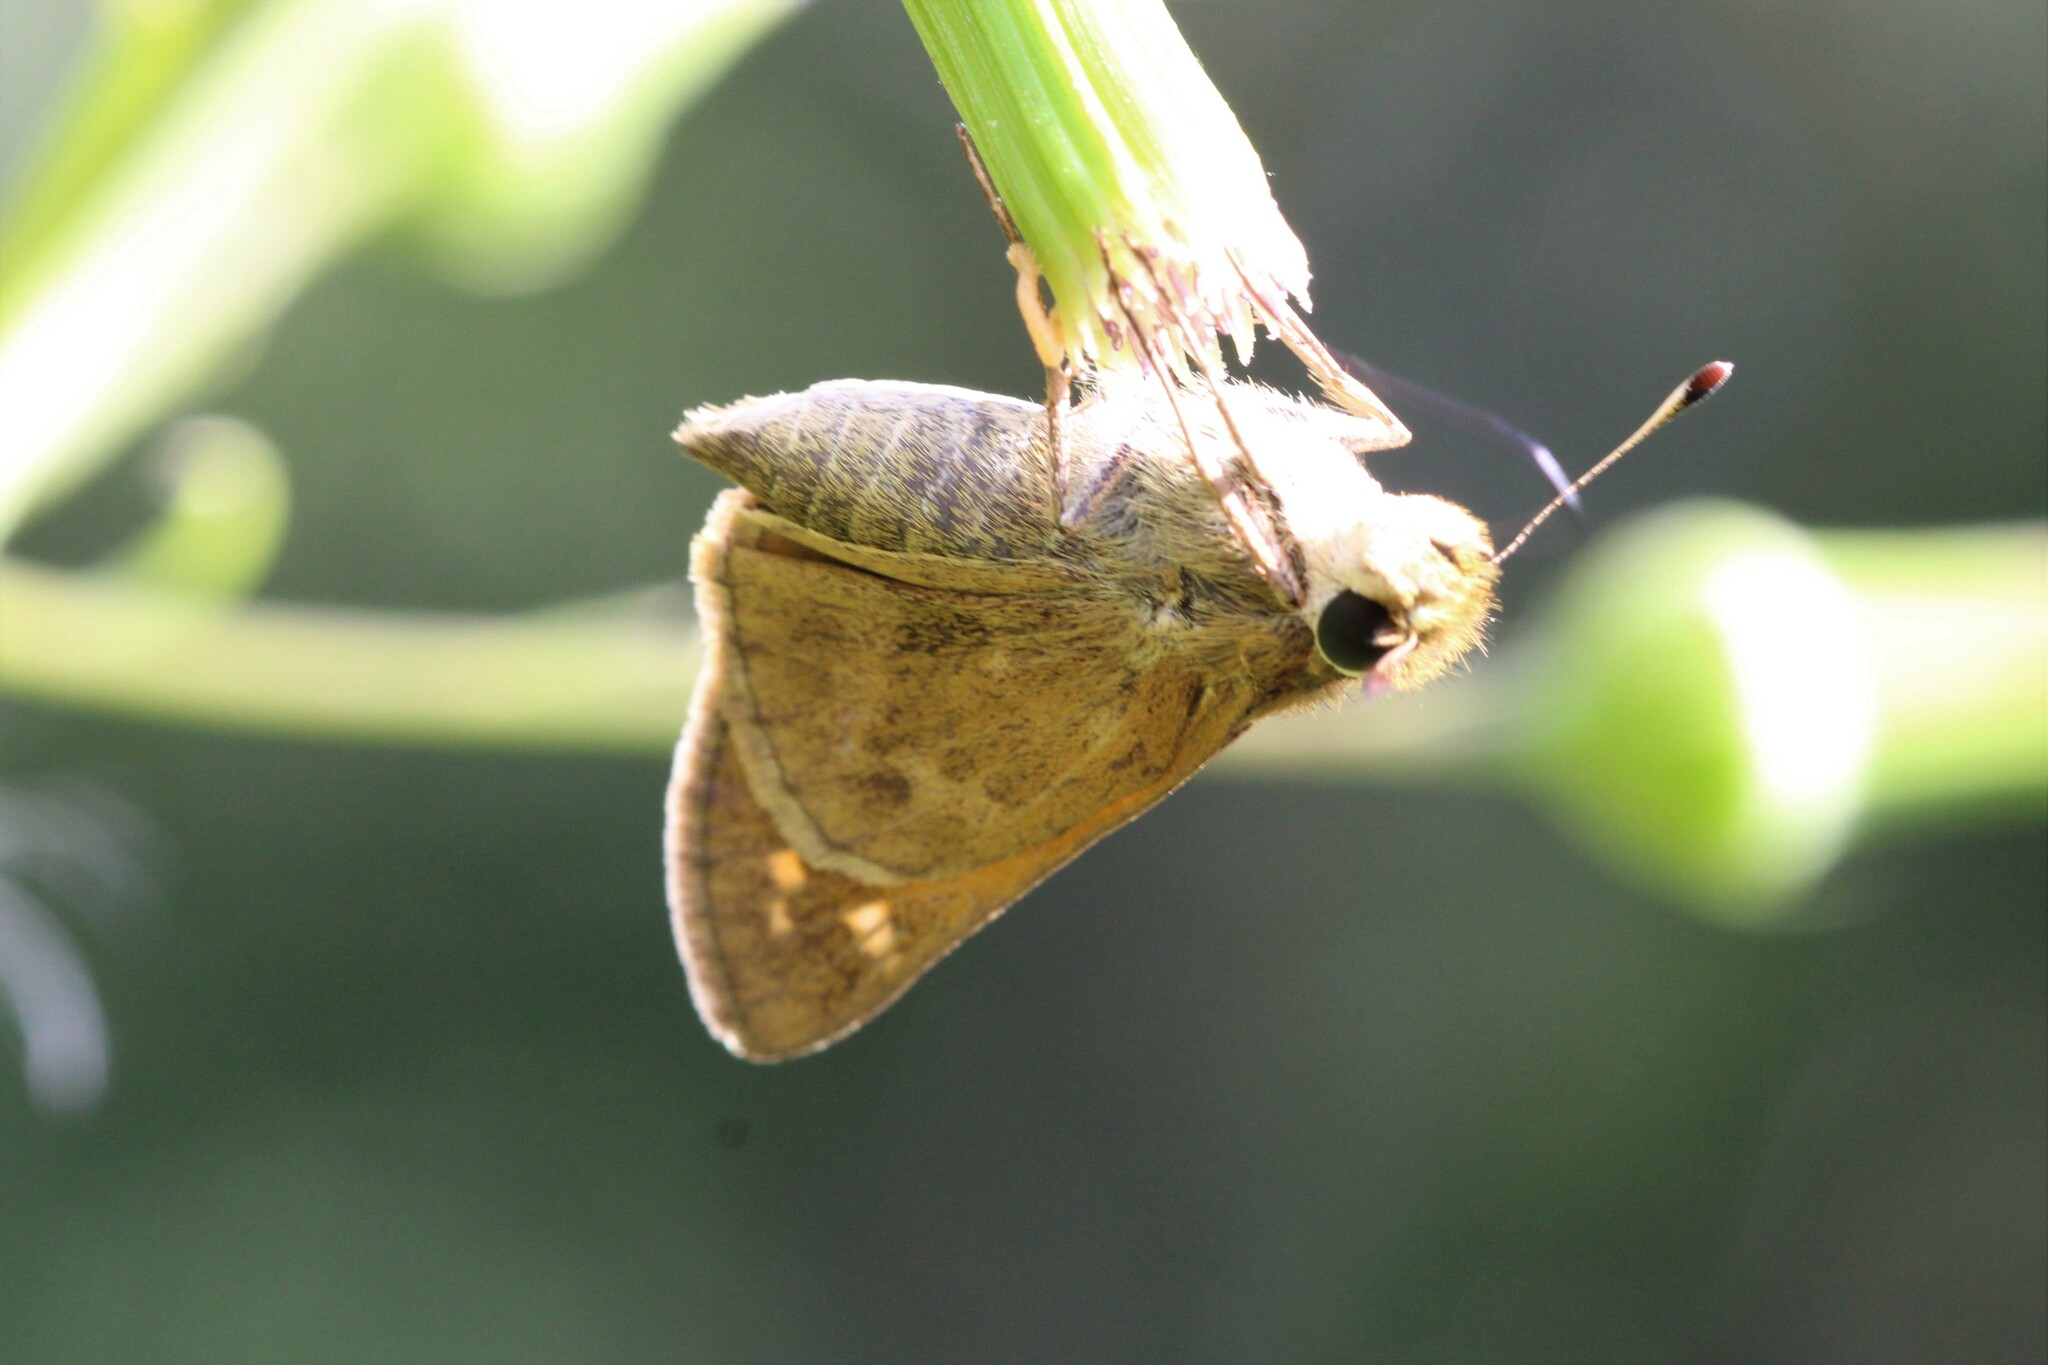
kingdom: Animalia
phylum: Arthropoda
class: Insecta
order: Lepidoptera
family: Hesperiidae
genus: Atalopedes
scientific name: Atalopedes
